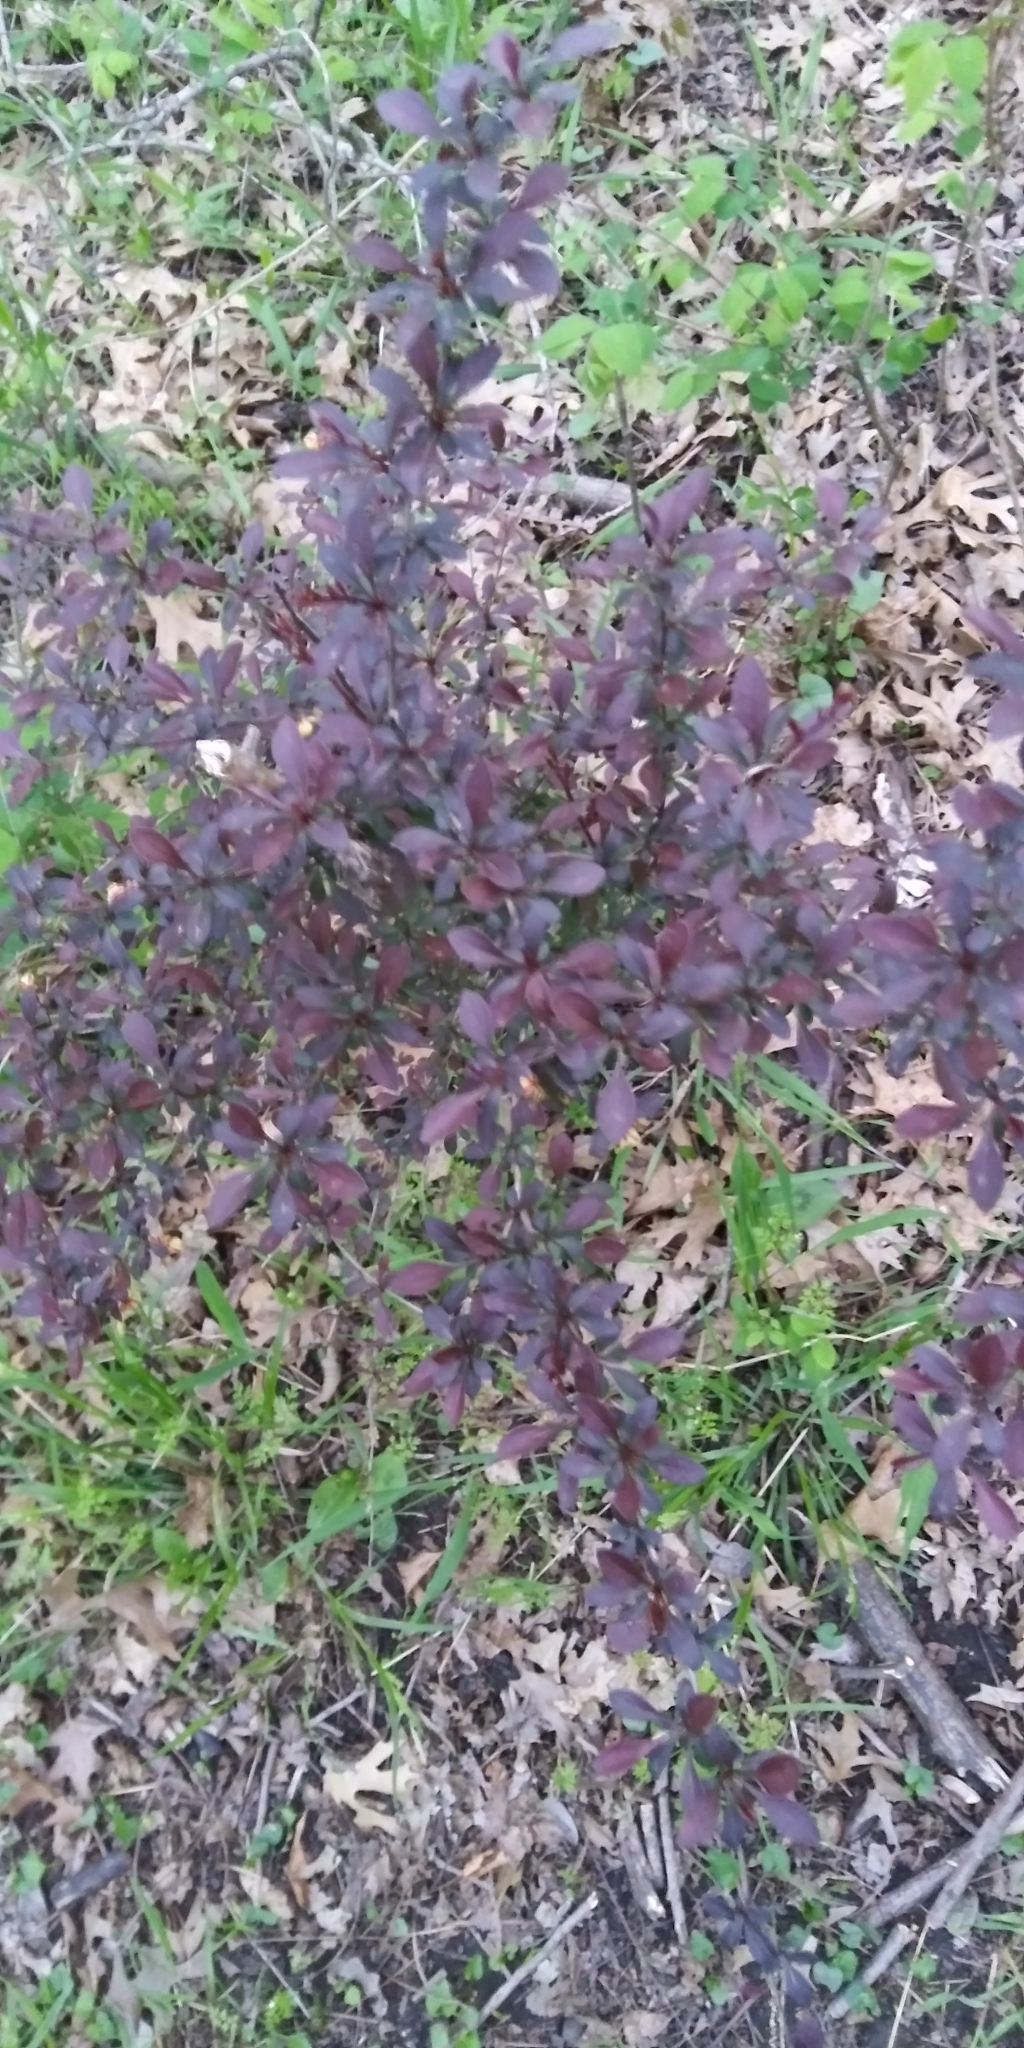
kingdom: Plantae
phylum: Tracheophyta
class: Magnoliopsida
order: Ranunculales
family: Berberidaceae
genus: Berberis
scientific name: Berberis thunbergii
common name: Japanese barberry
